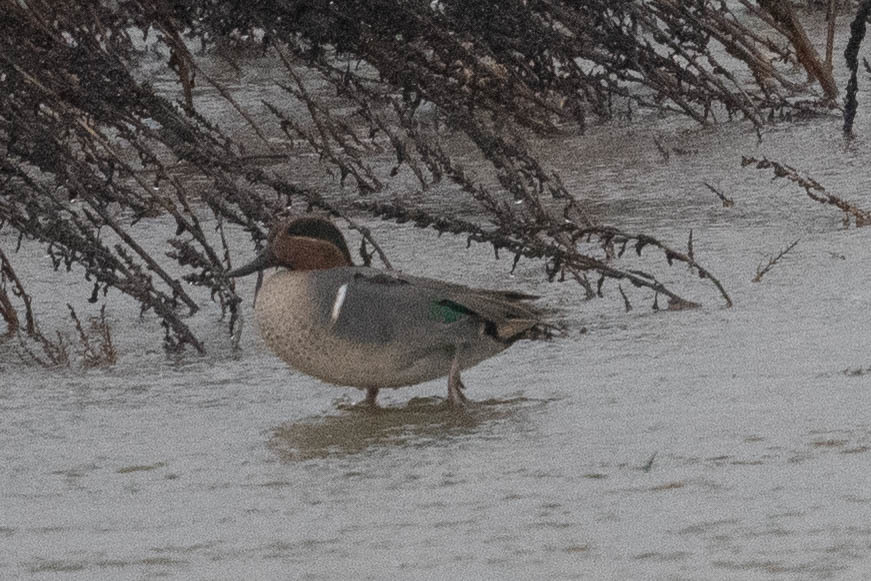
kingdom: Animalia
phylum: Chordata
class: Aves
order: Anseriformes
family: Anatidae
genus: Anas
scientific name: Anas crecca
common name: Eurasian teal
